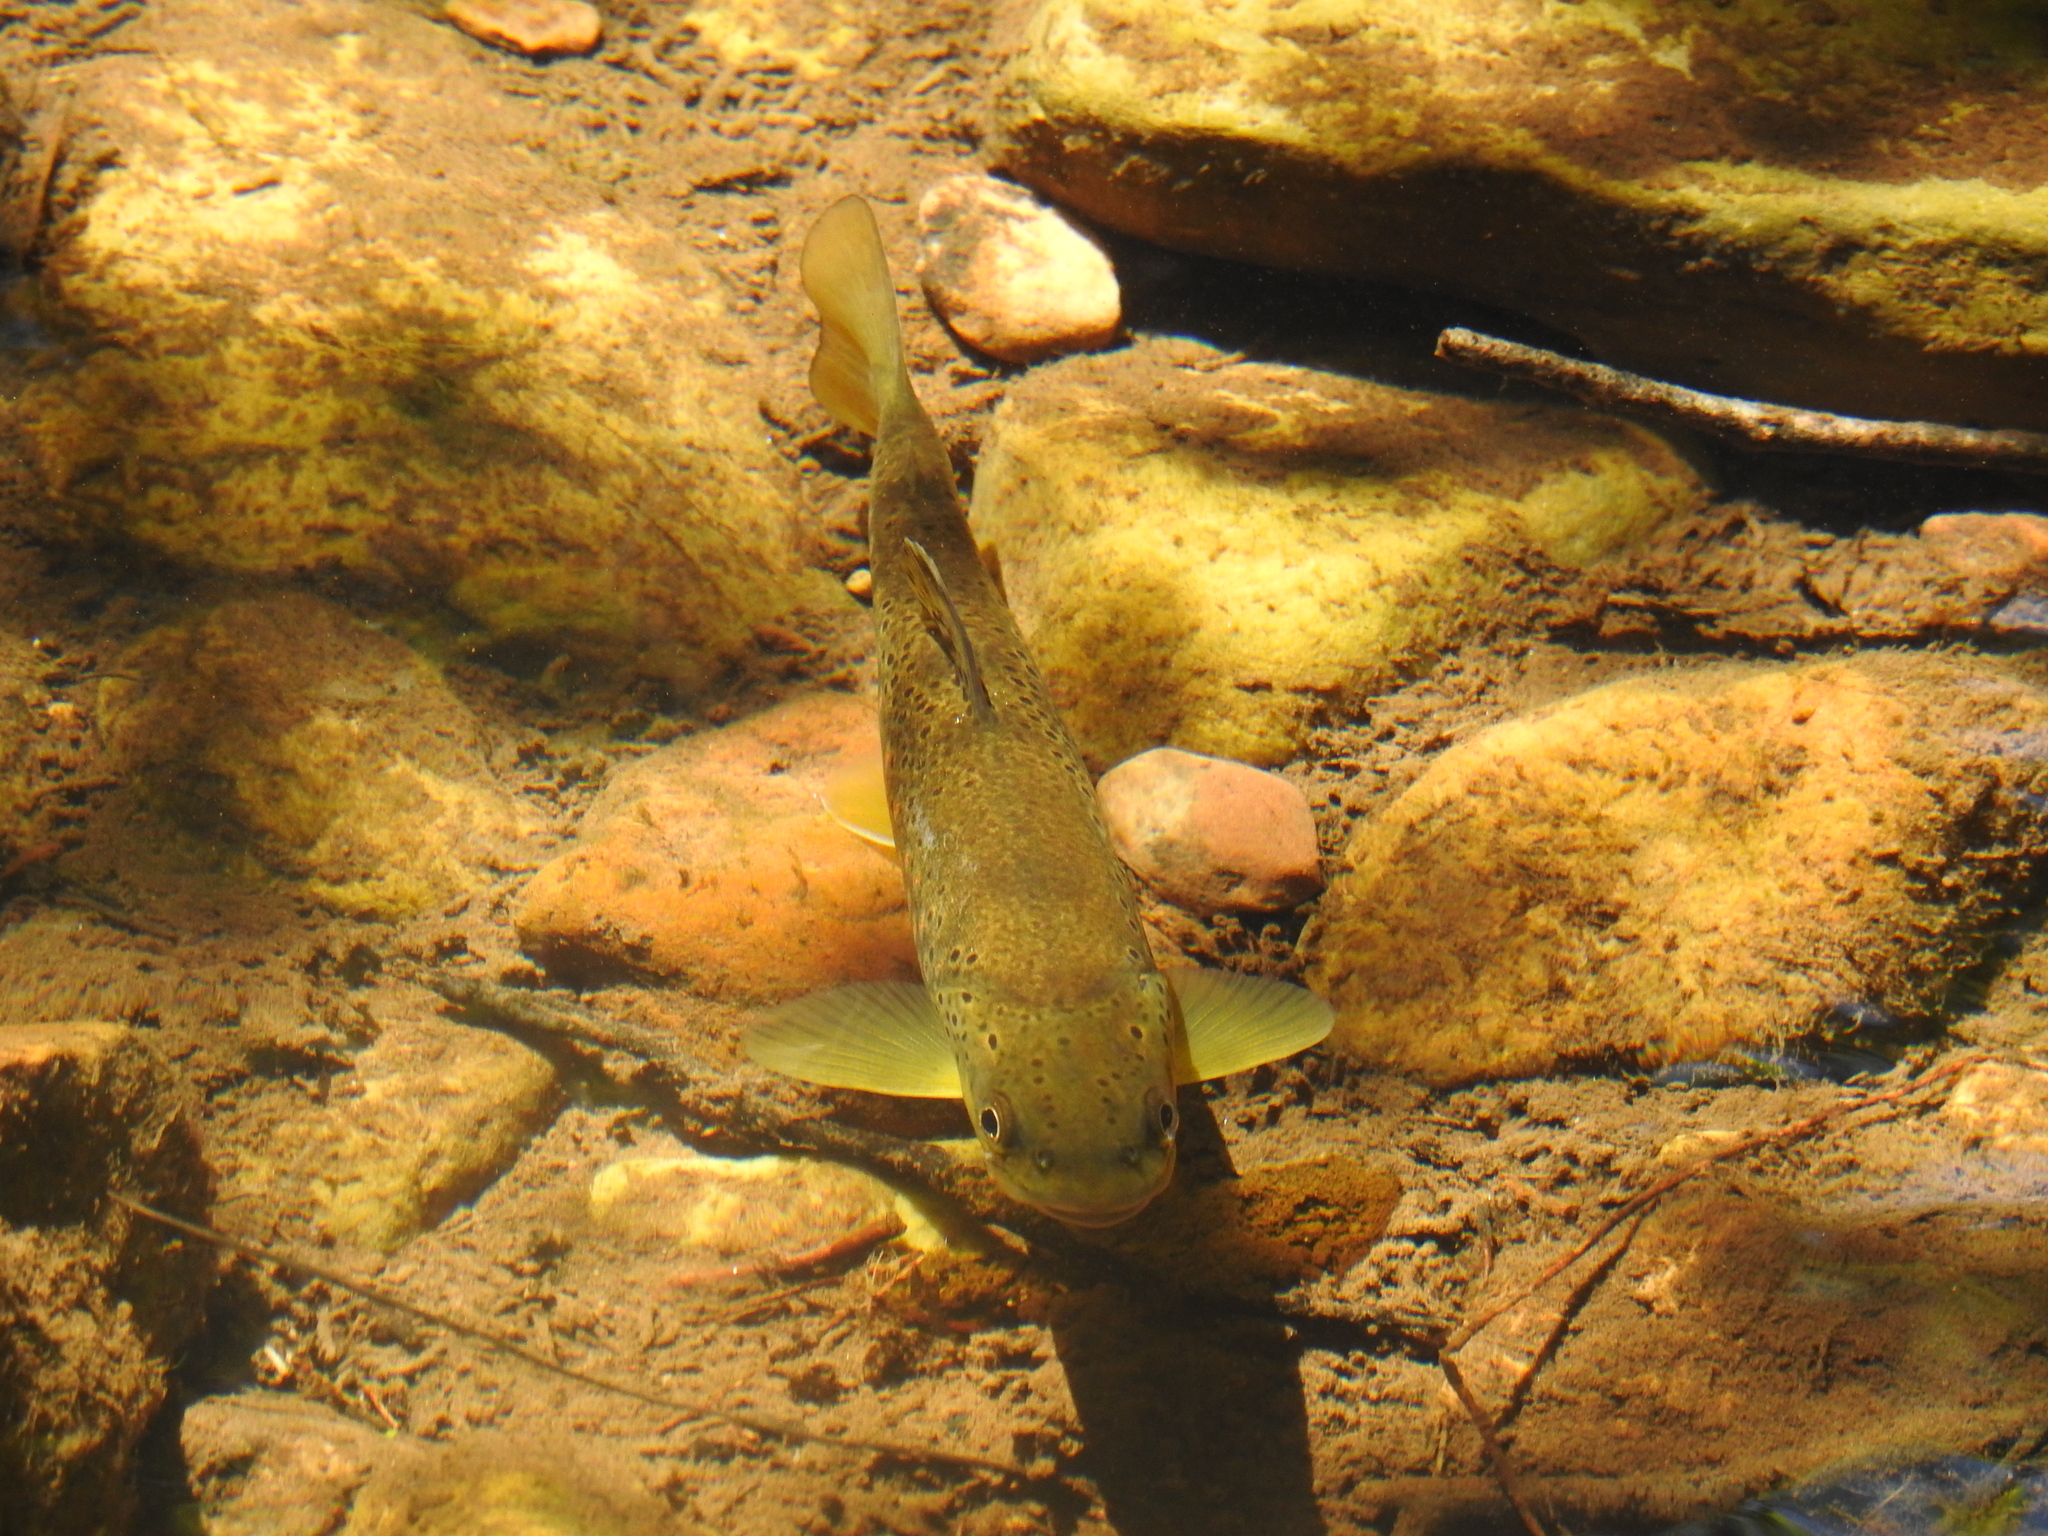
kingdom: Animalia
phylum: Chordata
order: Salmoniformes
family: Salmonidae
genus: Salmo
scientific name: Salmo trutta
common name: Brown trout
